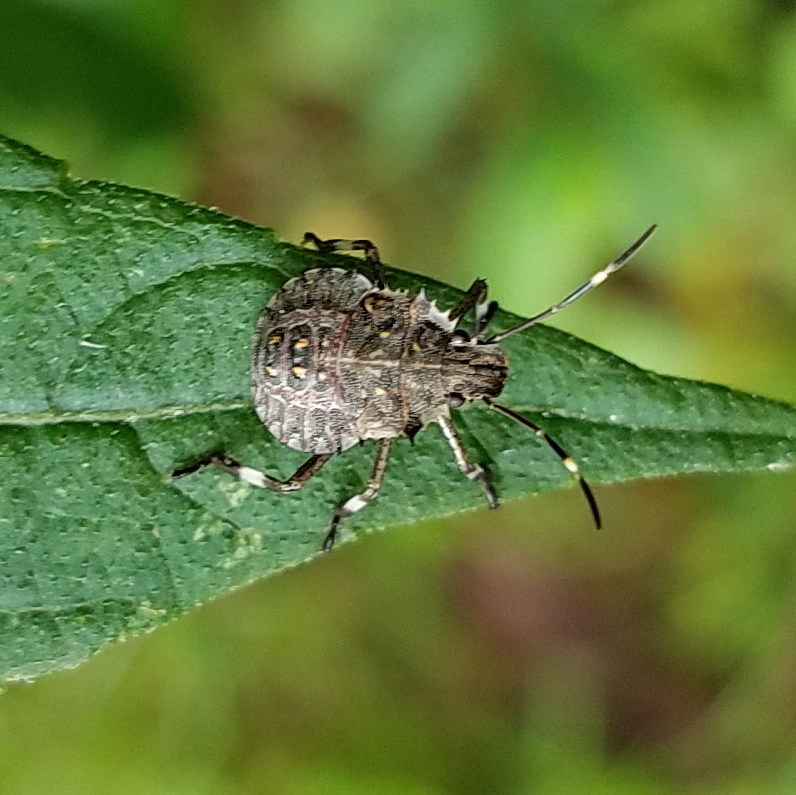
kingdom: Animalia
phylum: Arthropoda
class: Insecta
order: Hemiptera
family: Pentatomidae
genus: Halyomorpha
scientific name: Halyomorpha halys
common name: Brown marmorated stink bug
